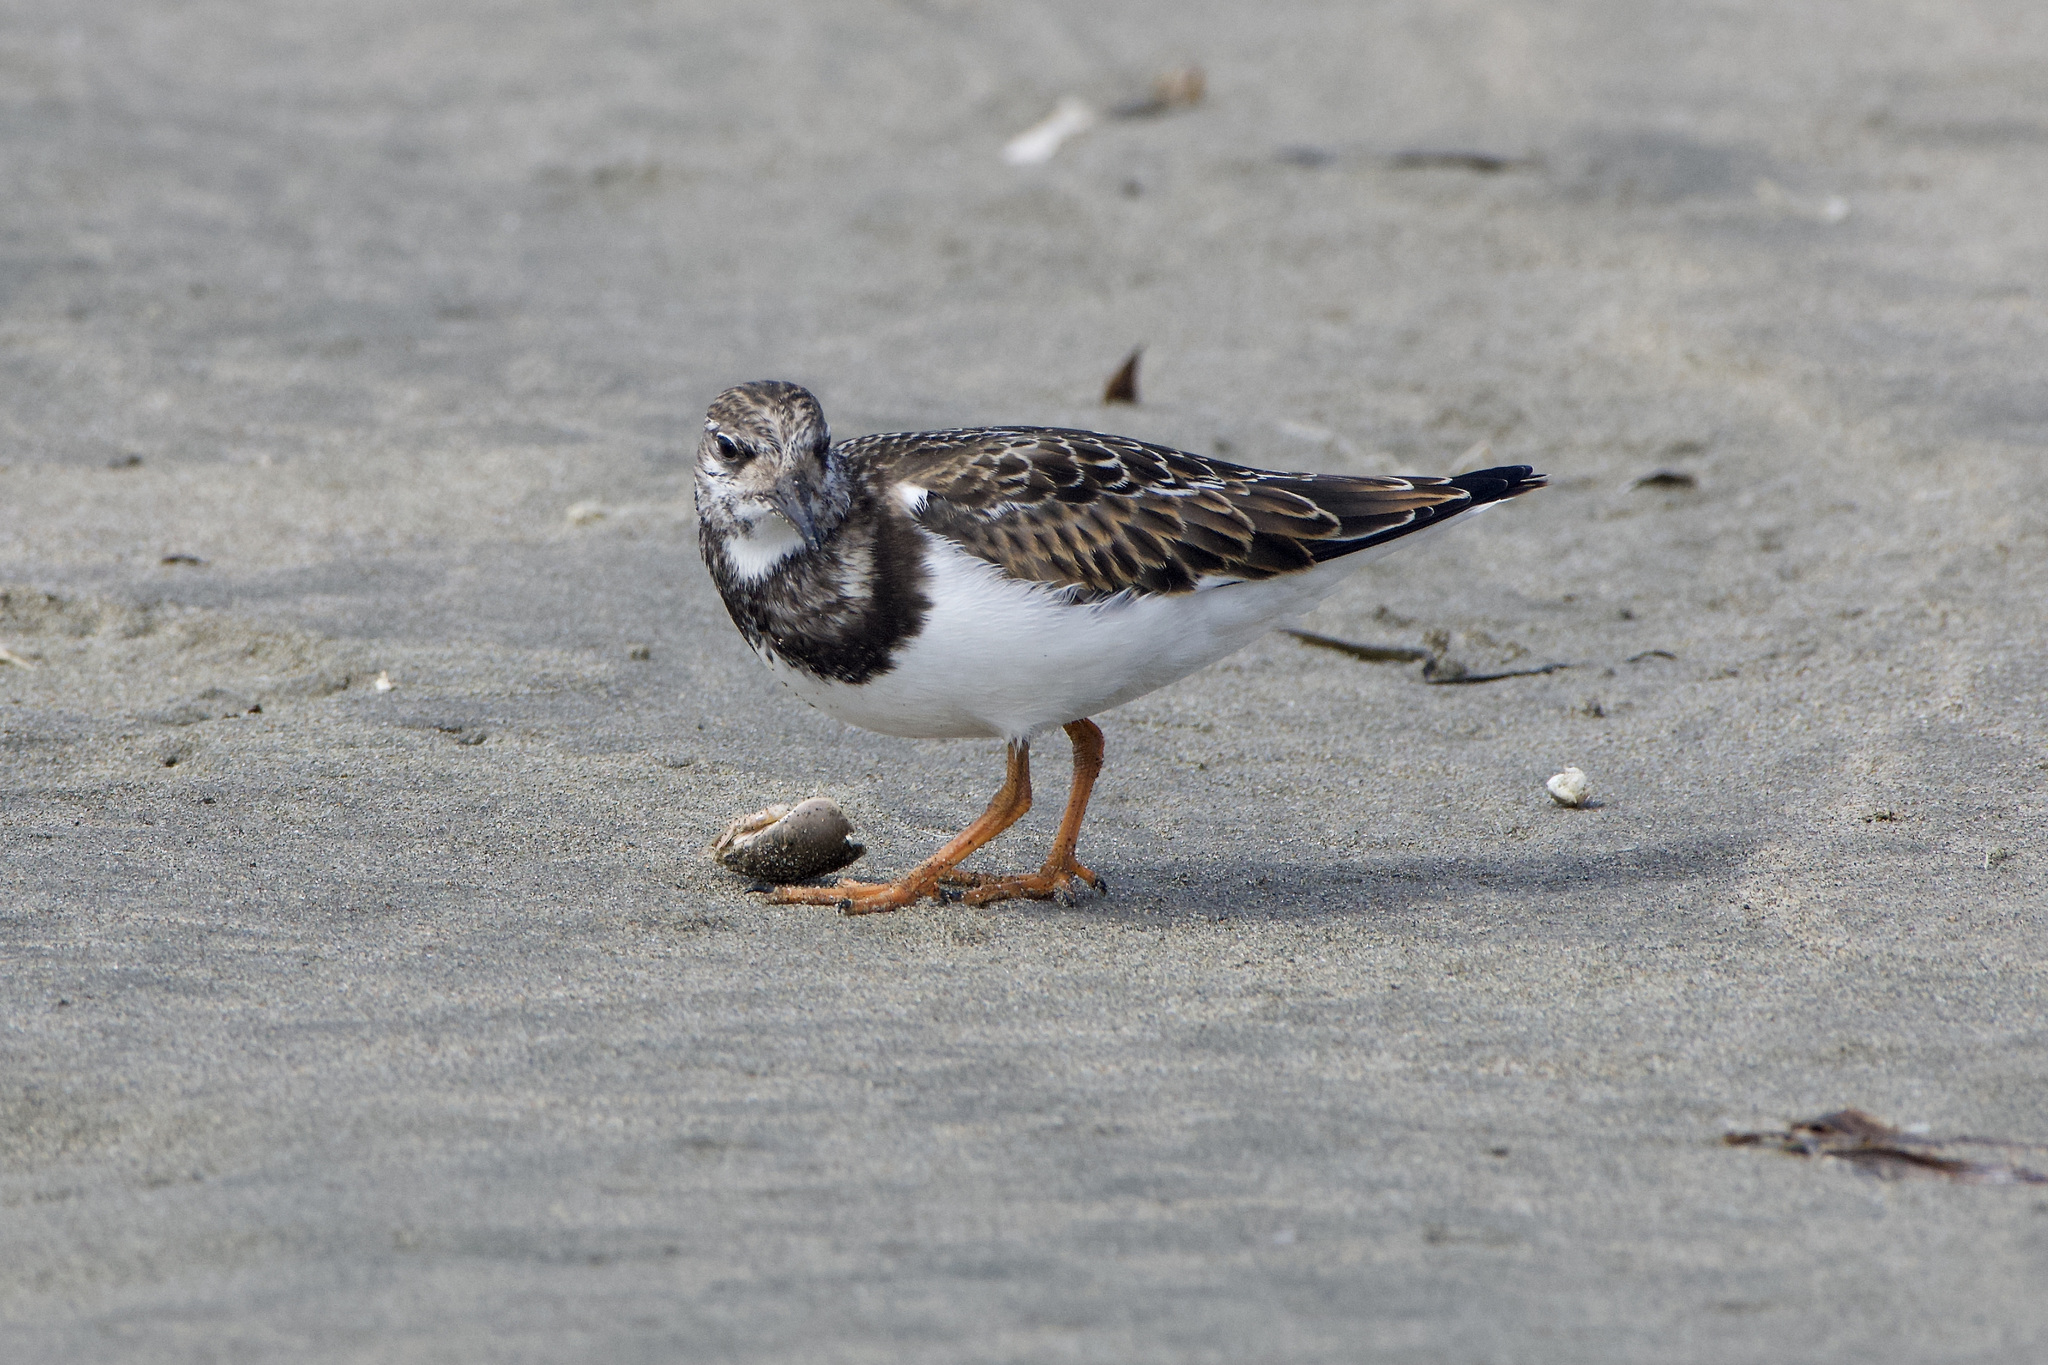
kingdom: Animalia
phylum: Chordata
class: Aves
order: Charadriiformes
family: Scolopacidae
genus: Arenaria
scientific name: Arenaria interpres
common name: Ruddy turnstone
